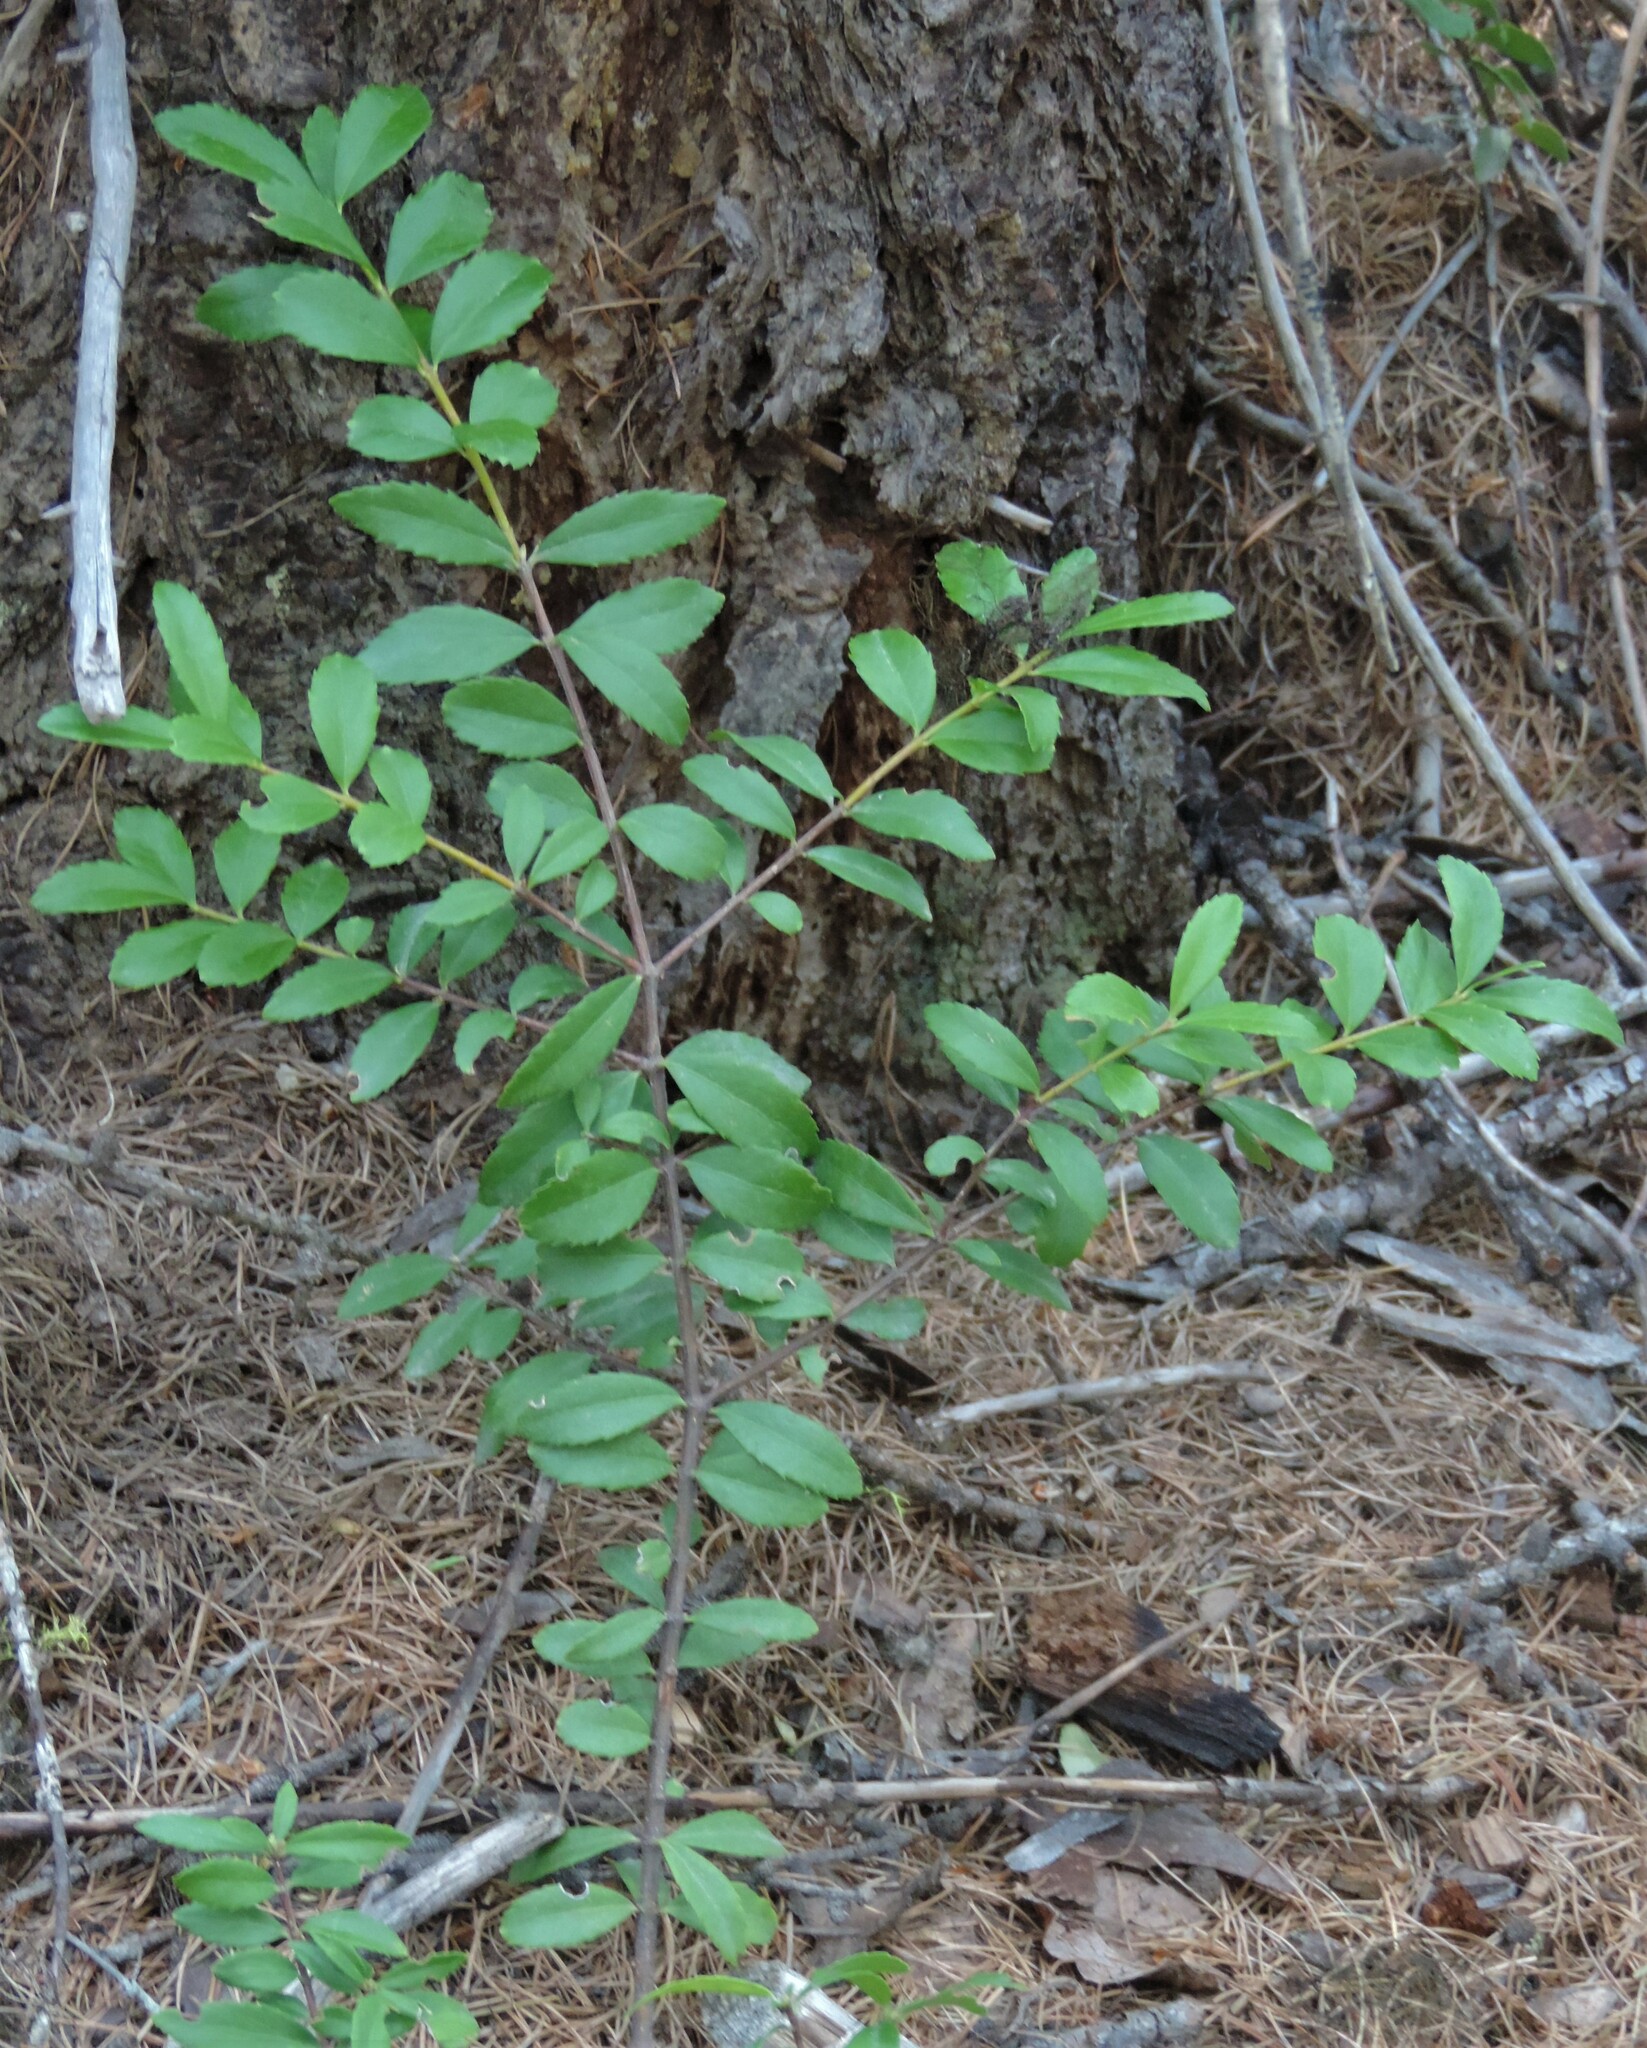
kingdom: Plantae
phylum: Tracheophyta
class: Magnoliopsida
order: Celastrales
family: Celastraceae
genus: Paxistima
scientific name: Paxistima myrsinites
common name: Mountain-lover
